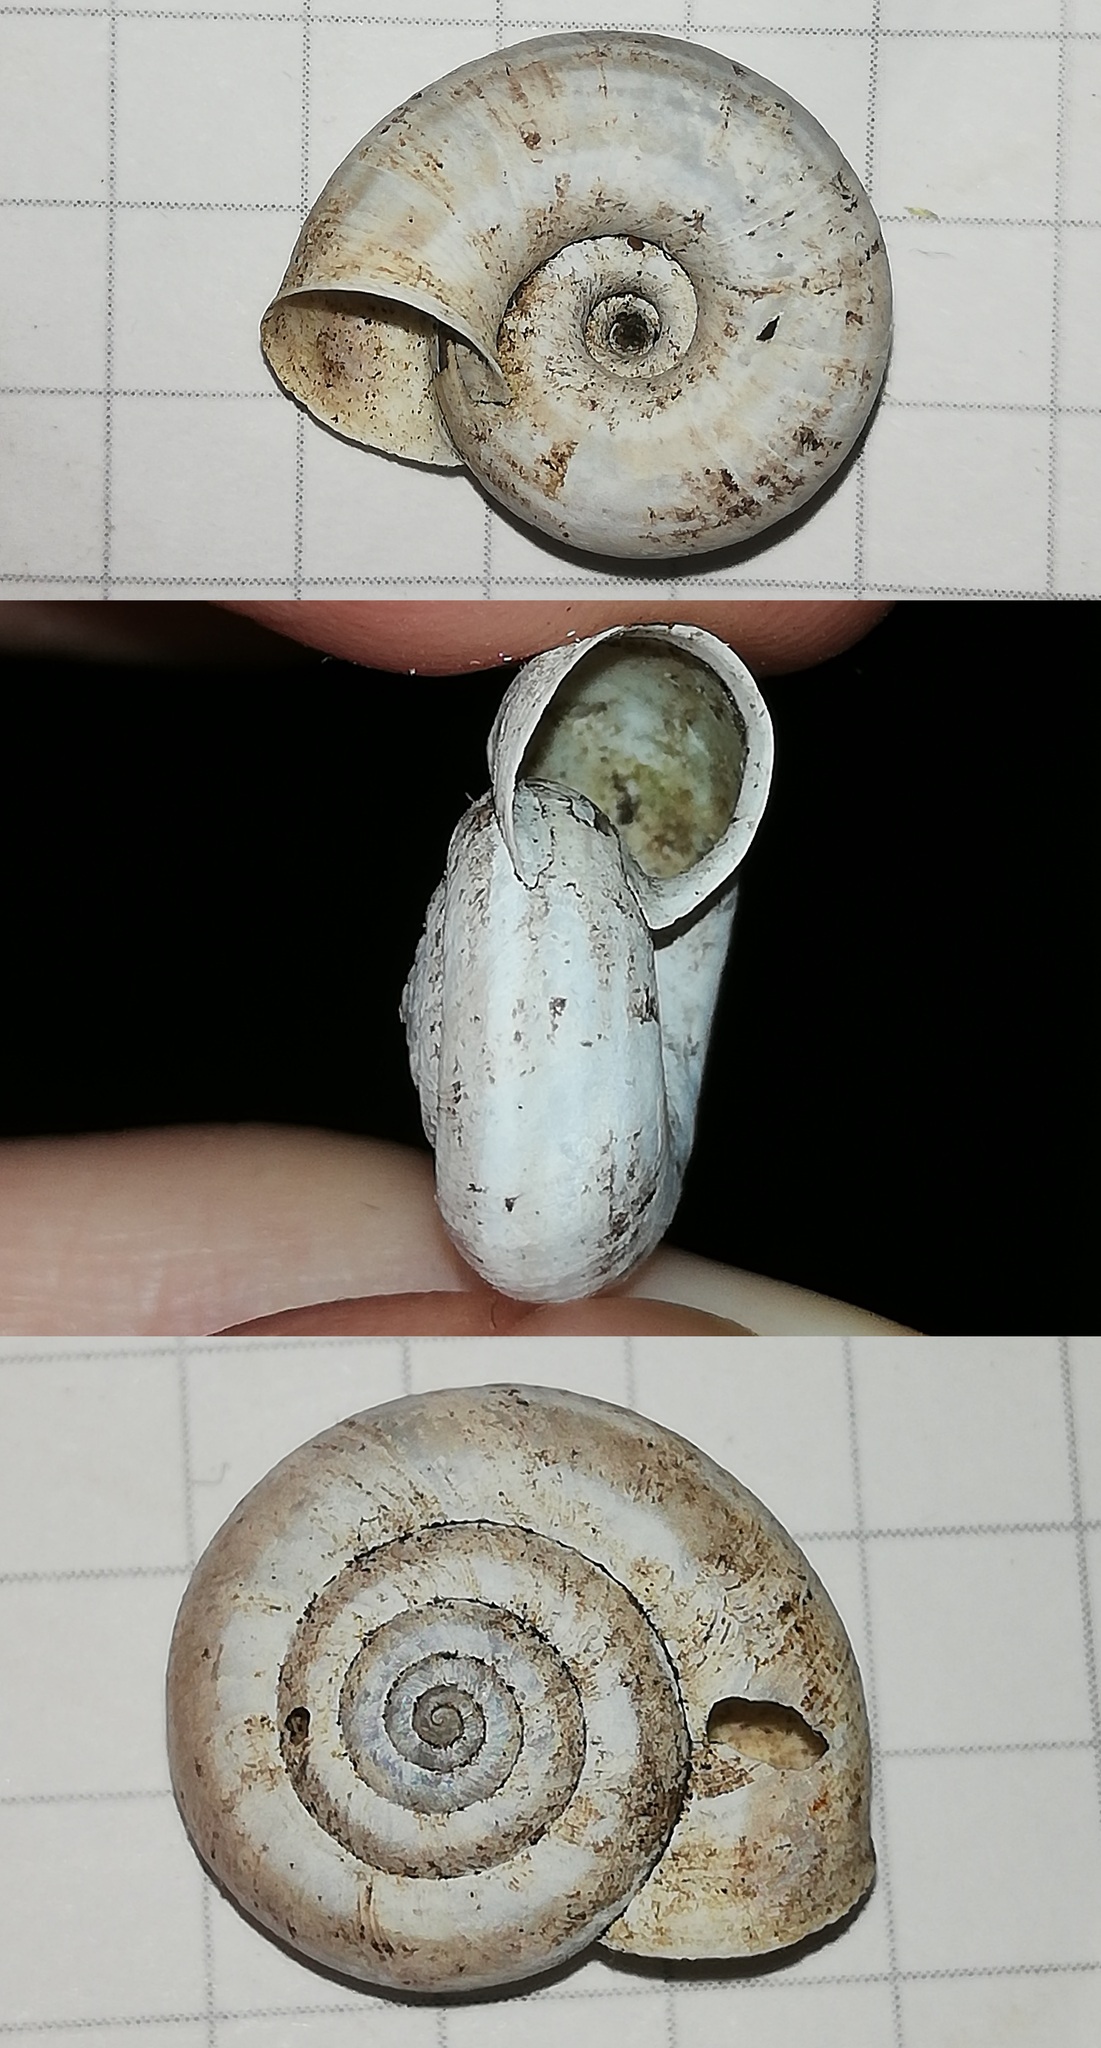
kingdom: Animalia
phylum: Mollusca
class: Gastropoda
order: Stylommatophora
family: Geomitridae
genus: Helicella
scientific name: Helicella itala
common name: Heath snail
